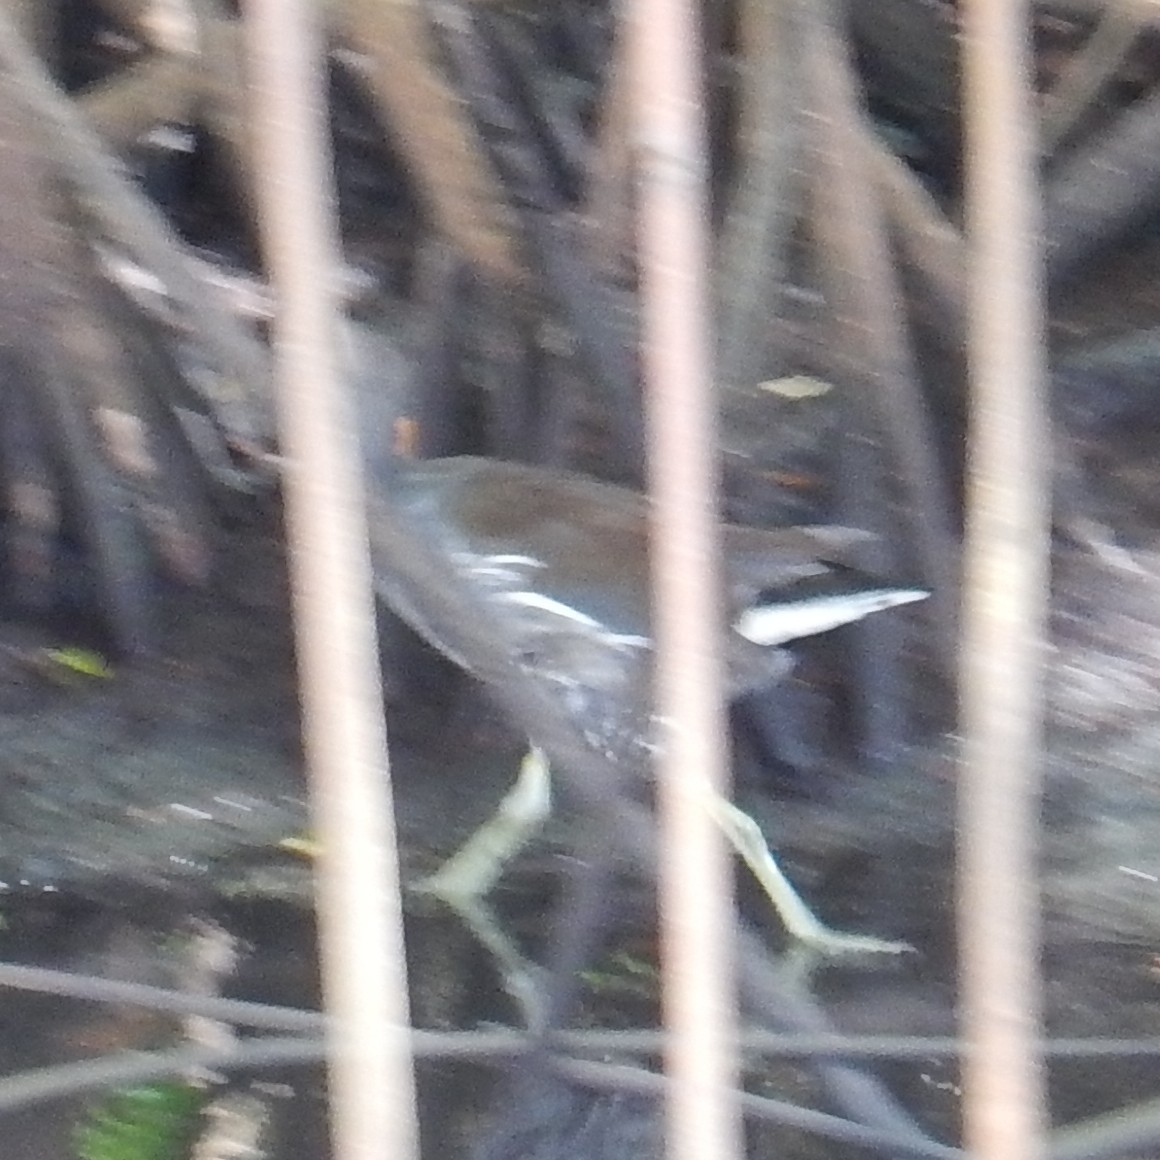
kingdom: Animalia
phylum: Chordata
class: Aves
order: Gruiformes
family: Rallidae
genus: Gallinula
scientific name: Gallinula chloropus
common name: Common moorhen
